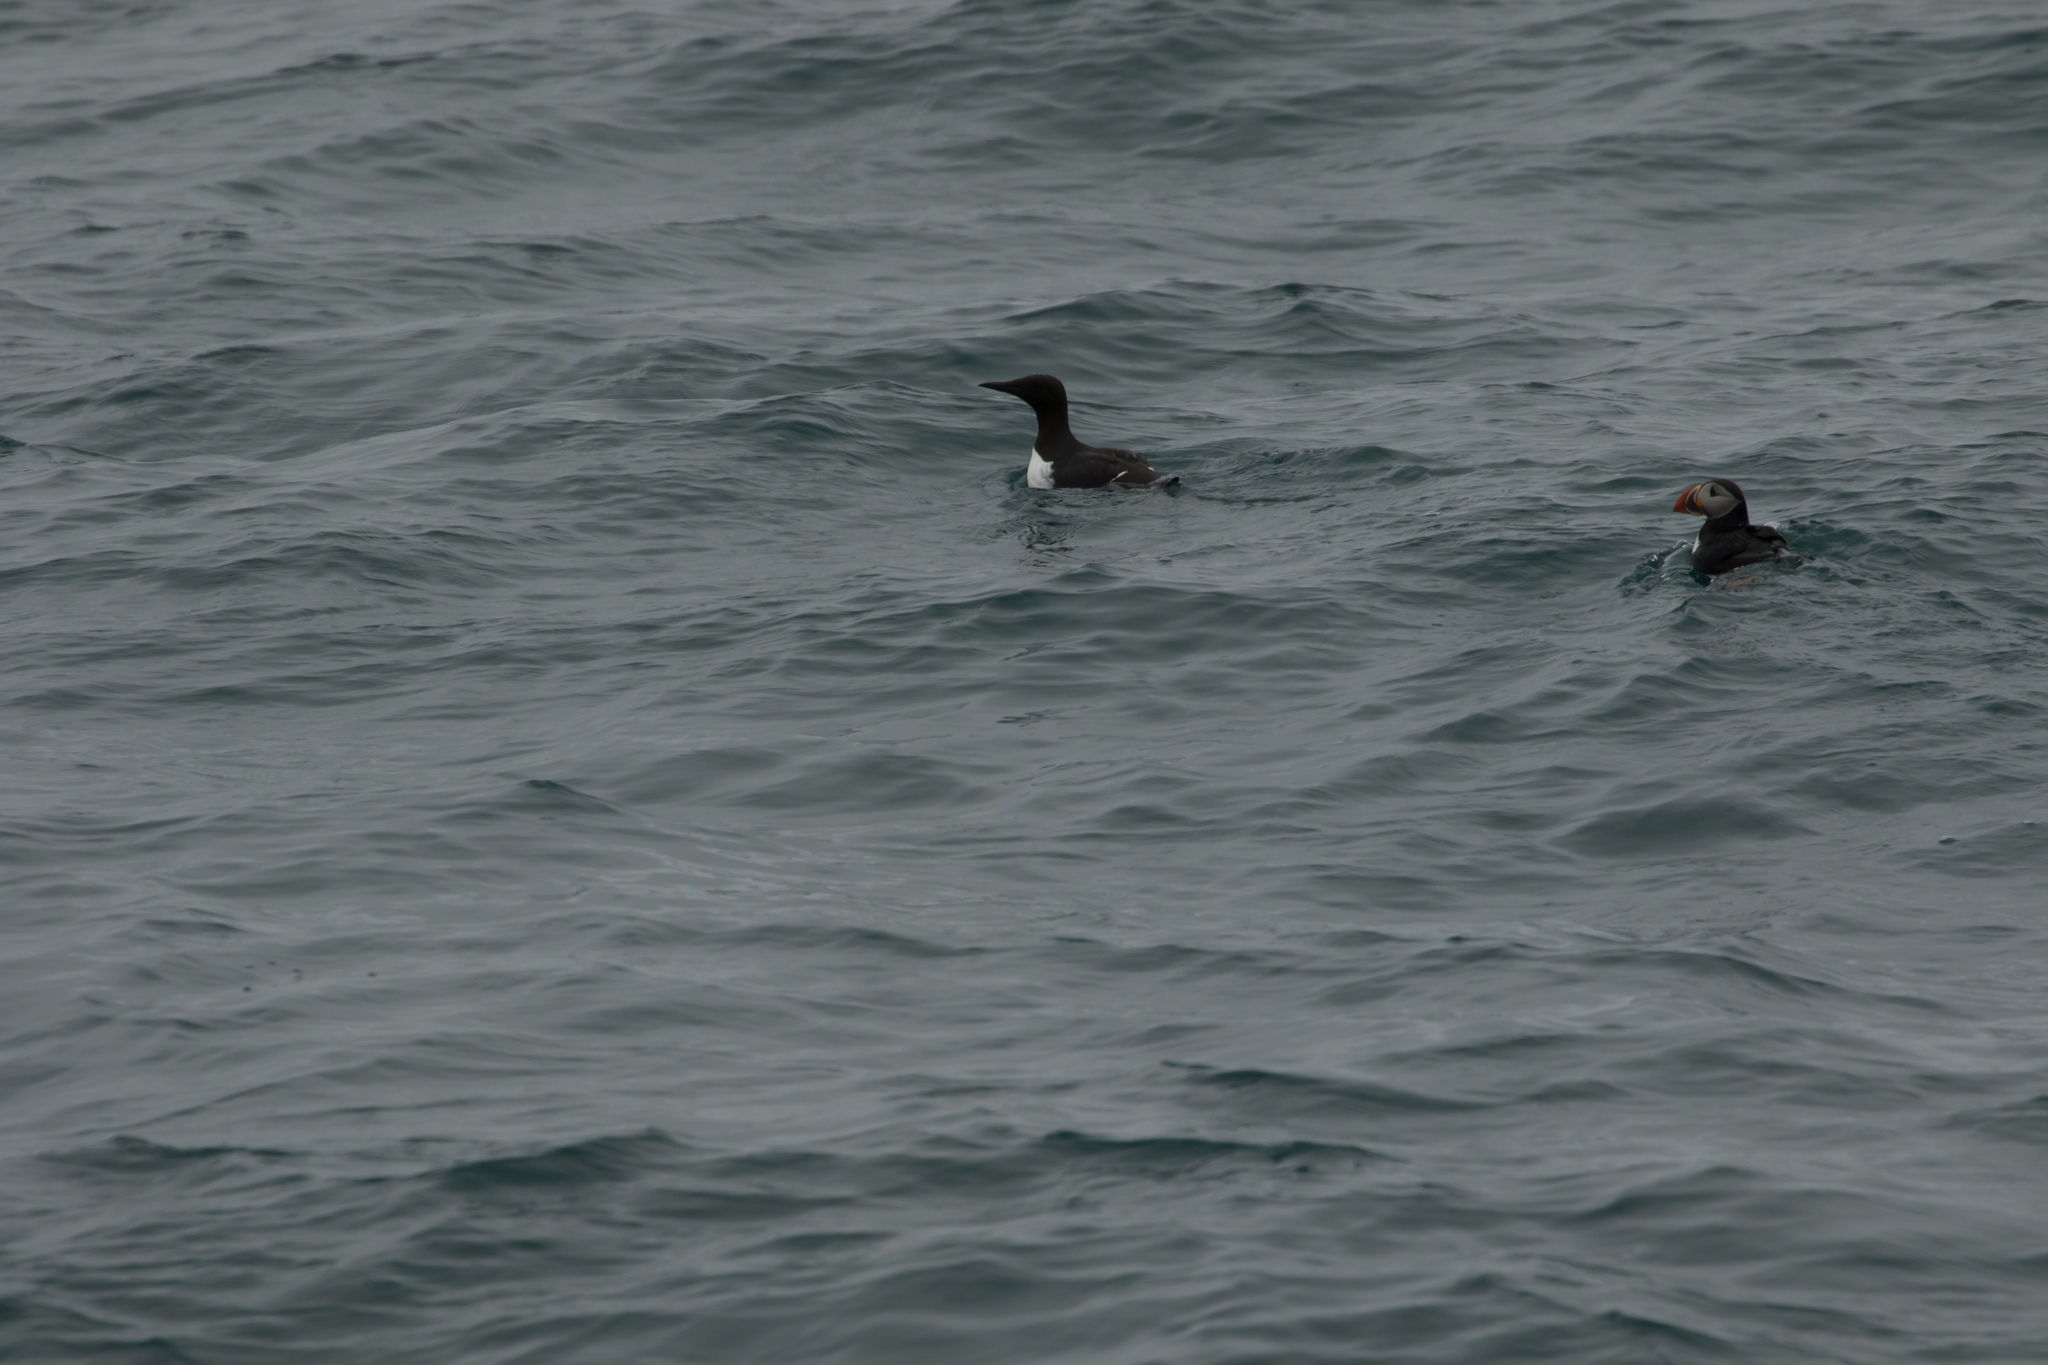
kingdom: Animalia
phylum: Chordata
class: Aves
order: Charadriiformes
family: Alcidae
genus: Uria
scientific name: Uria aalge
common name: Common murre
